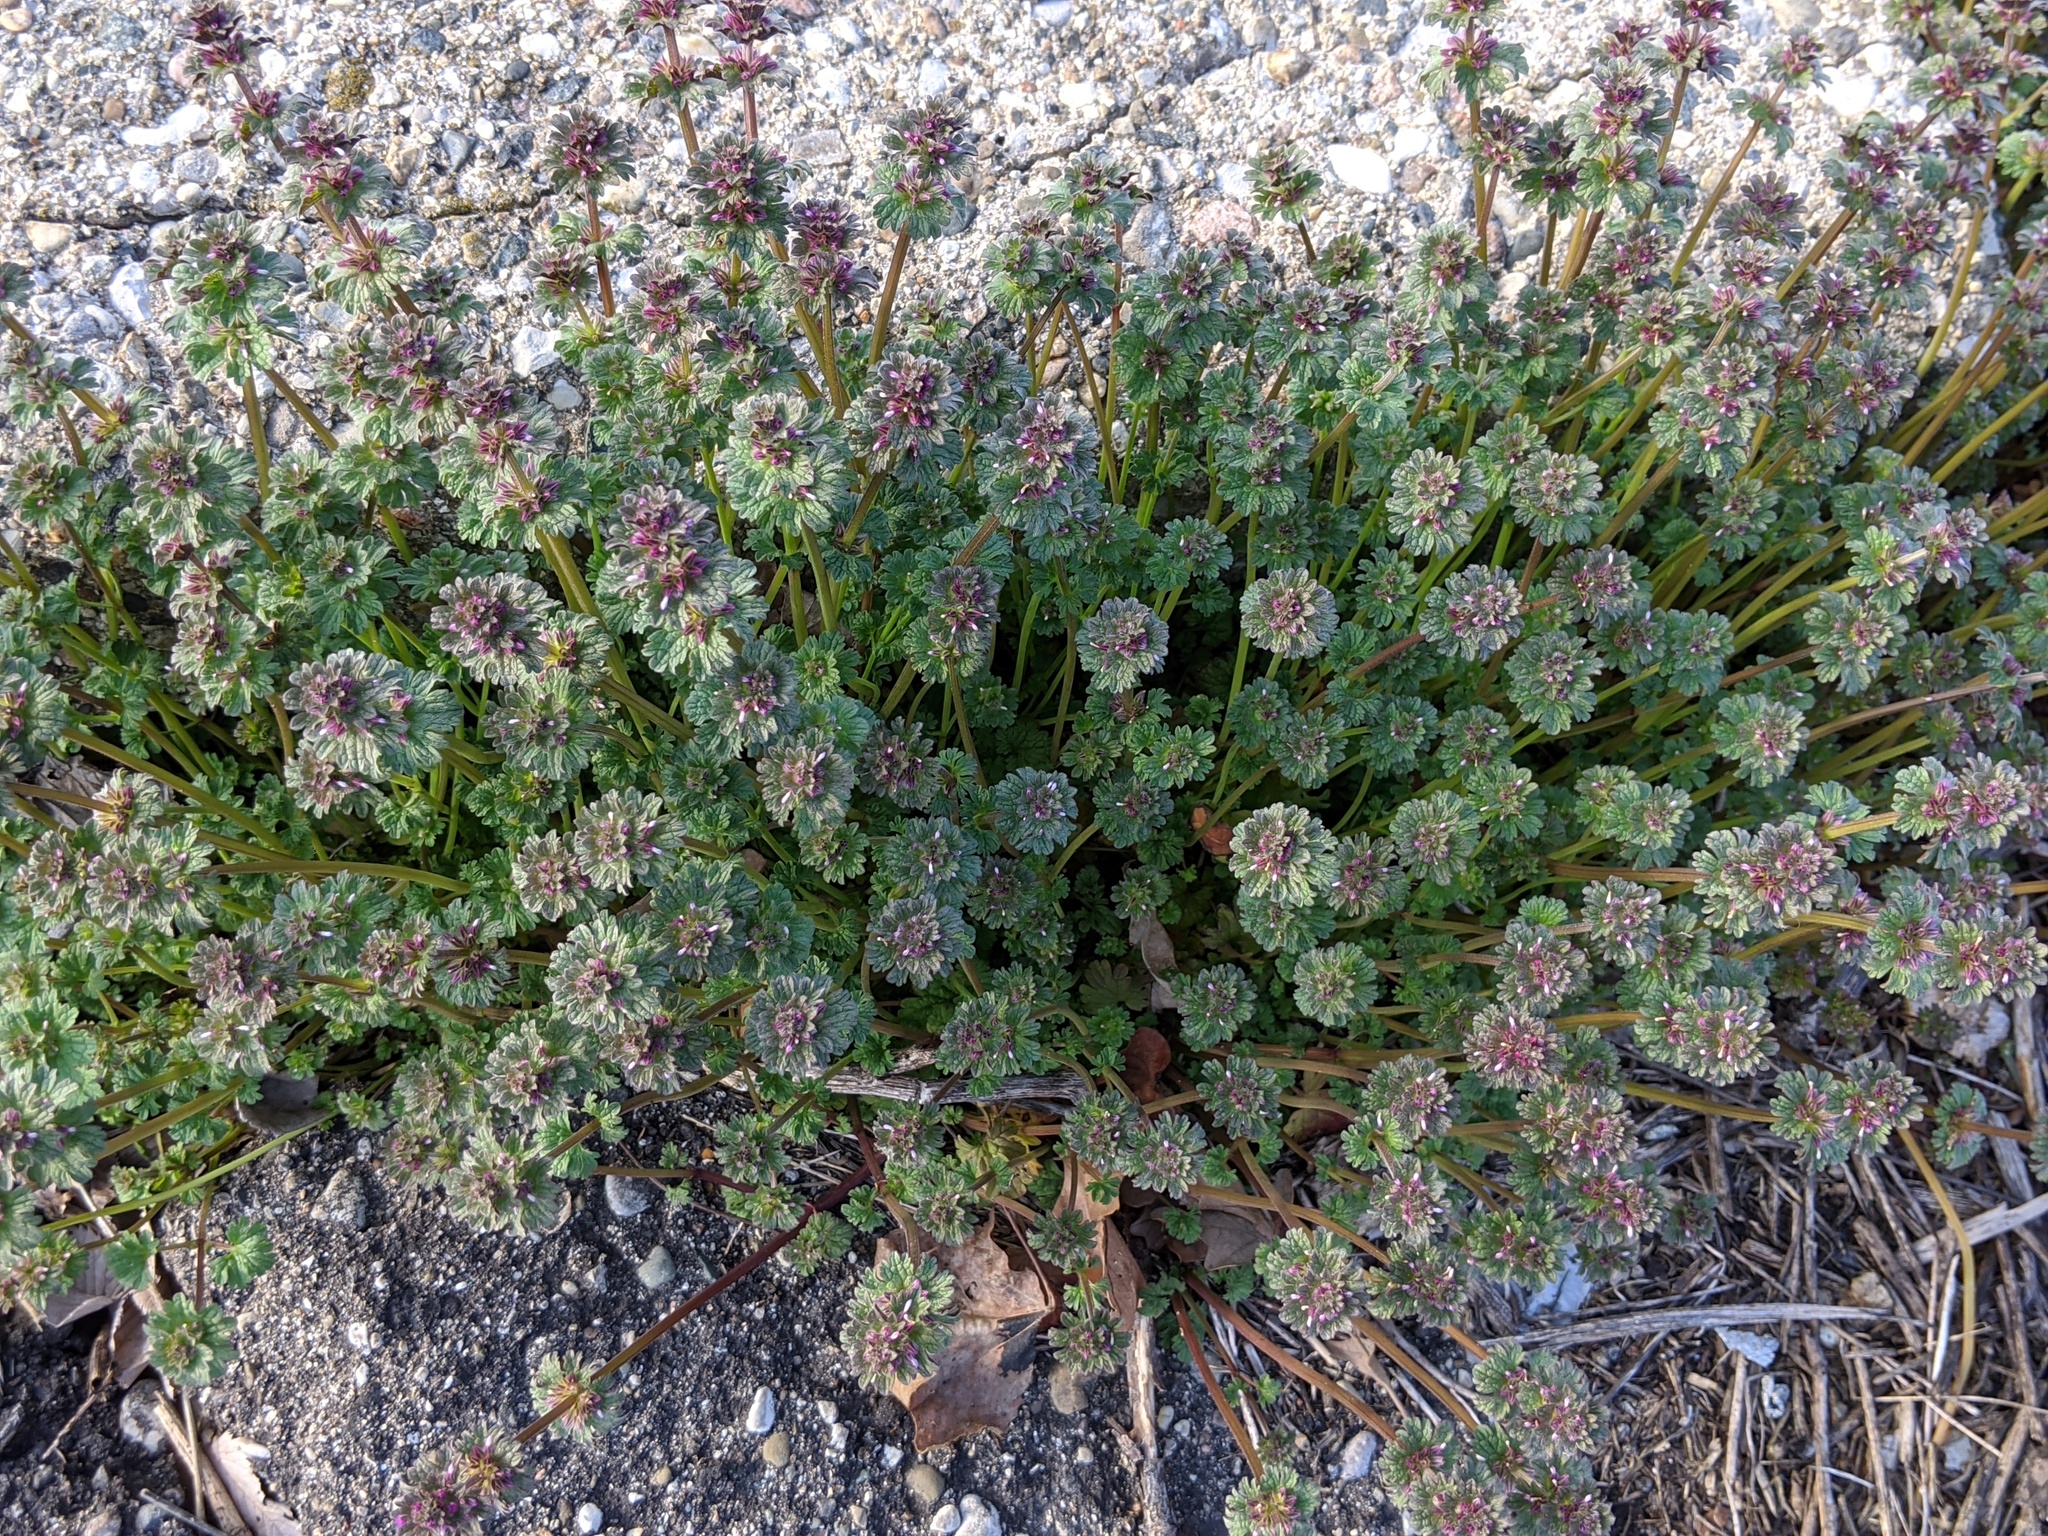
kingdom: Plantae
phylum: Tracheophyta
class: Magnoliopsida
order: Lamiales
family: Lamiaceae
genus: Lamium
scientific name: Lamium amplexicaule
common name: Henbit dead-nettle
